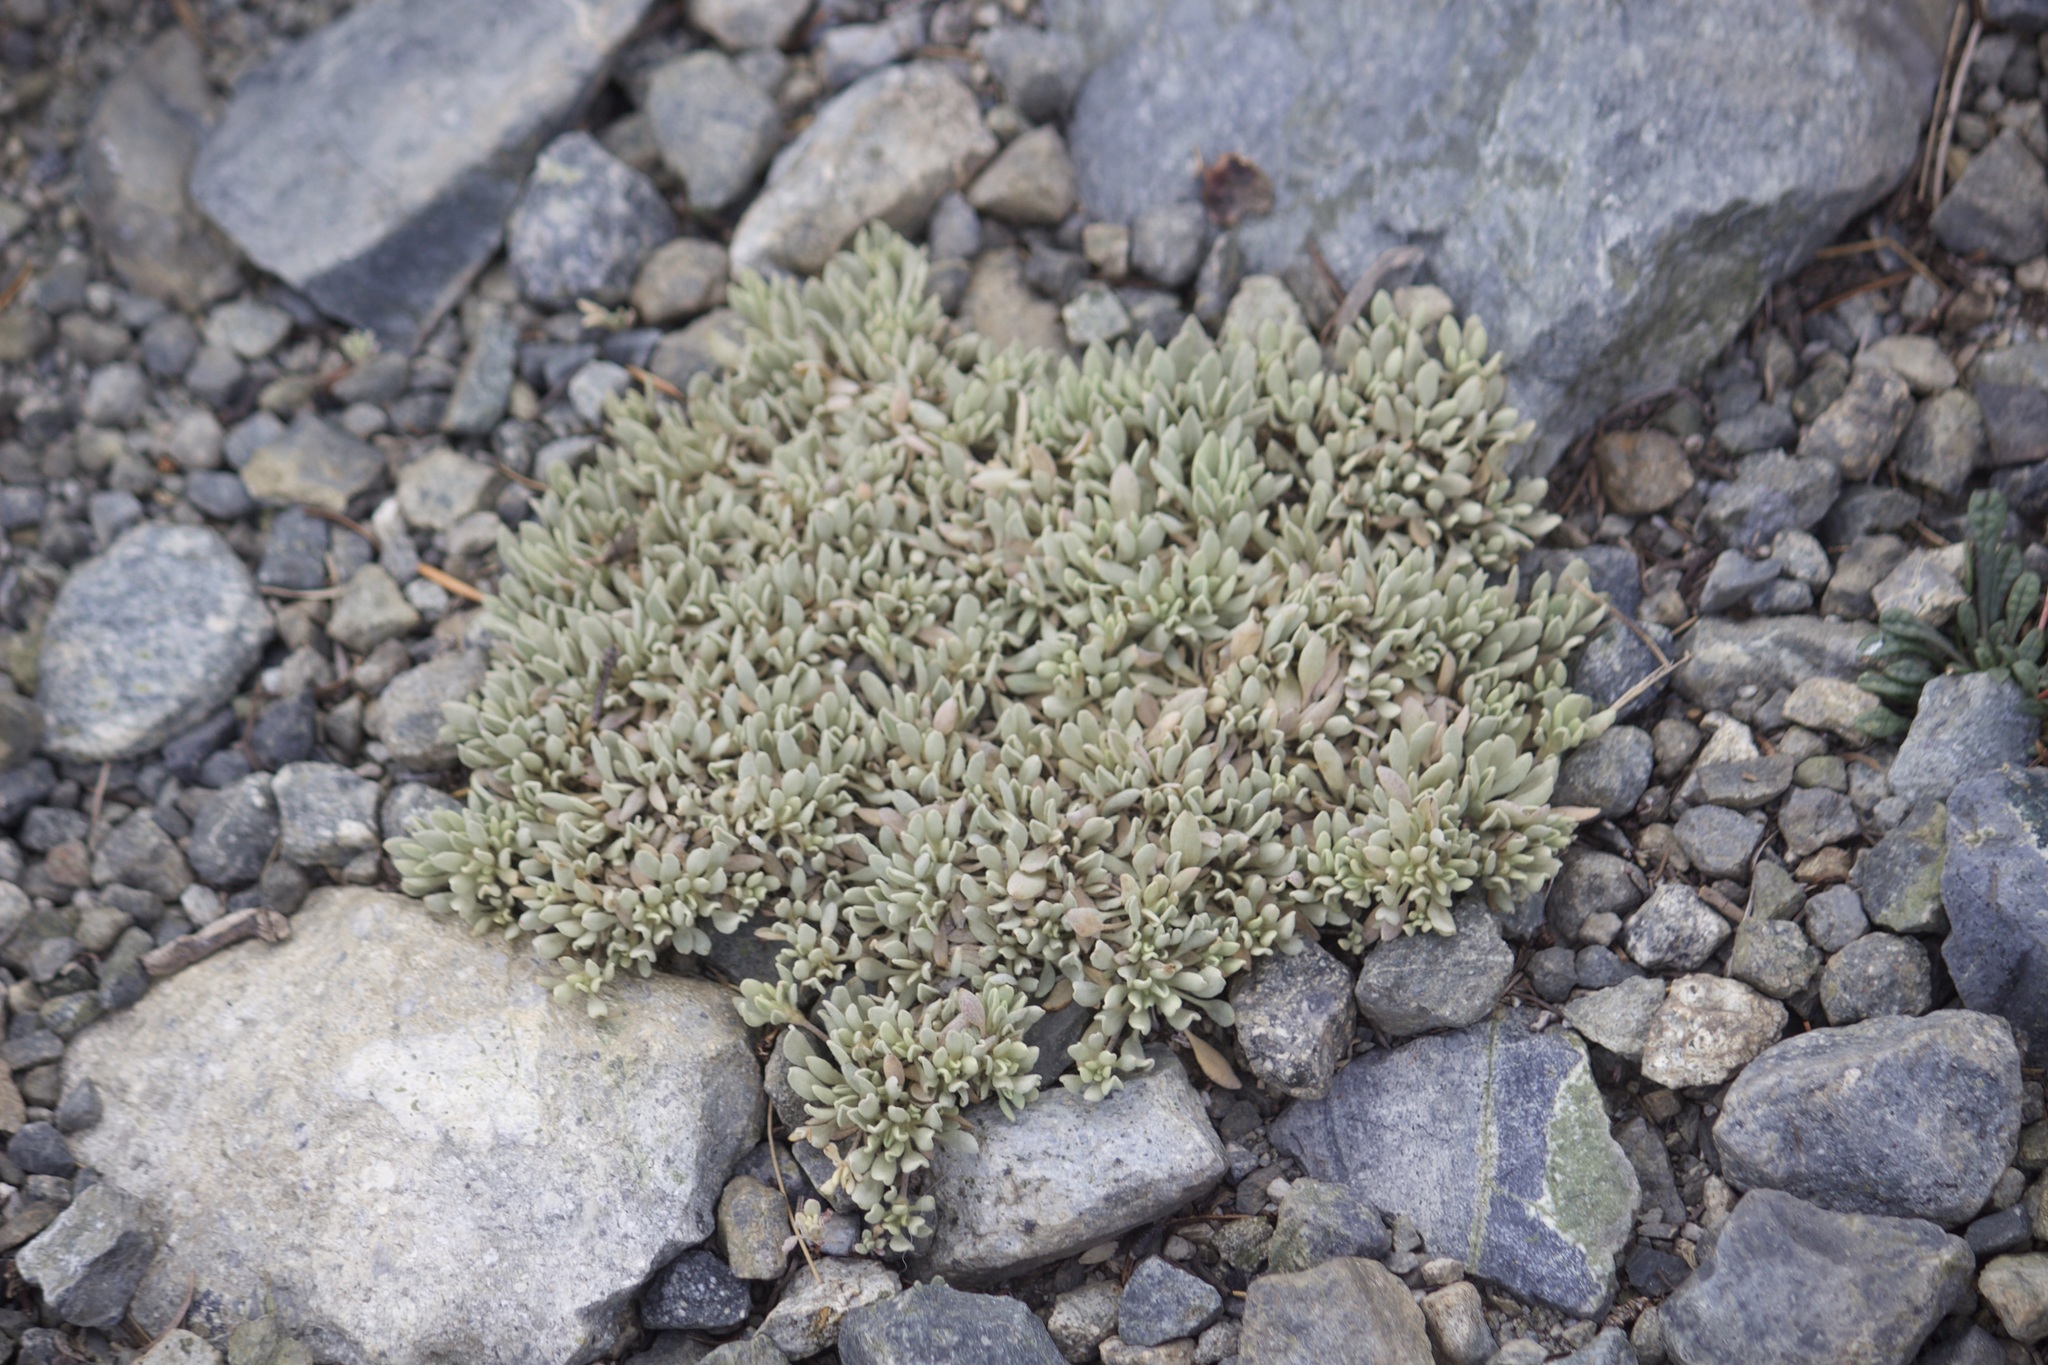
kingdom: Plantae
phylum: Tracheophyta
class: Magnoliopsida
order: Caryophyllales
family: Polygonaceae
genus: Eriogonum
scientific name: Eriogonum incanum
